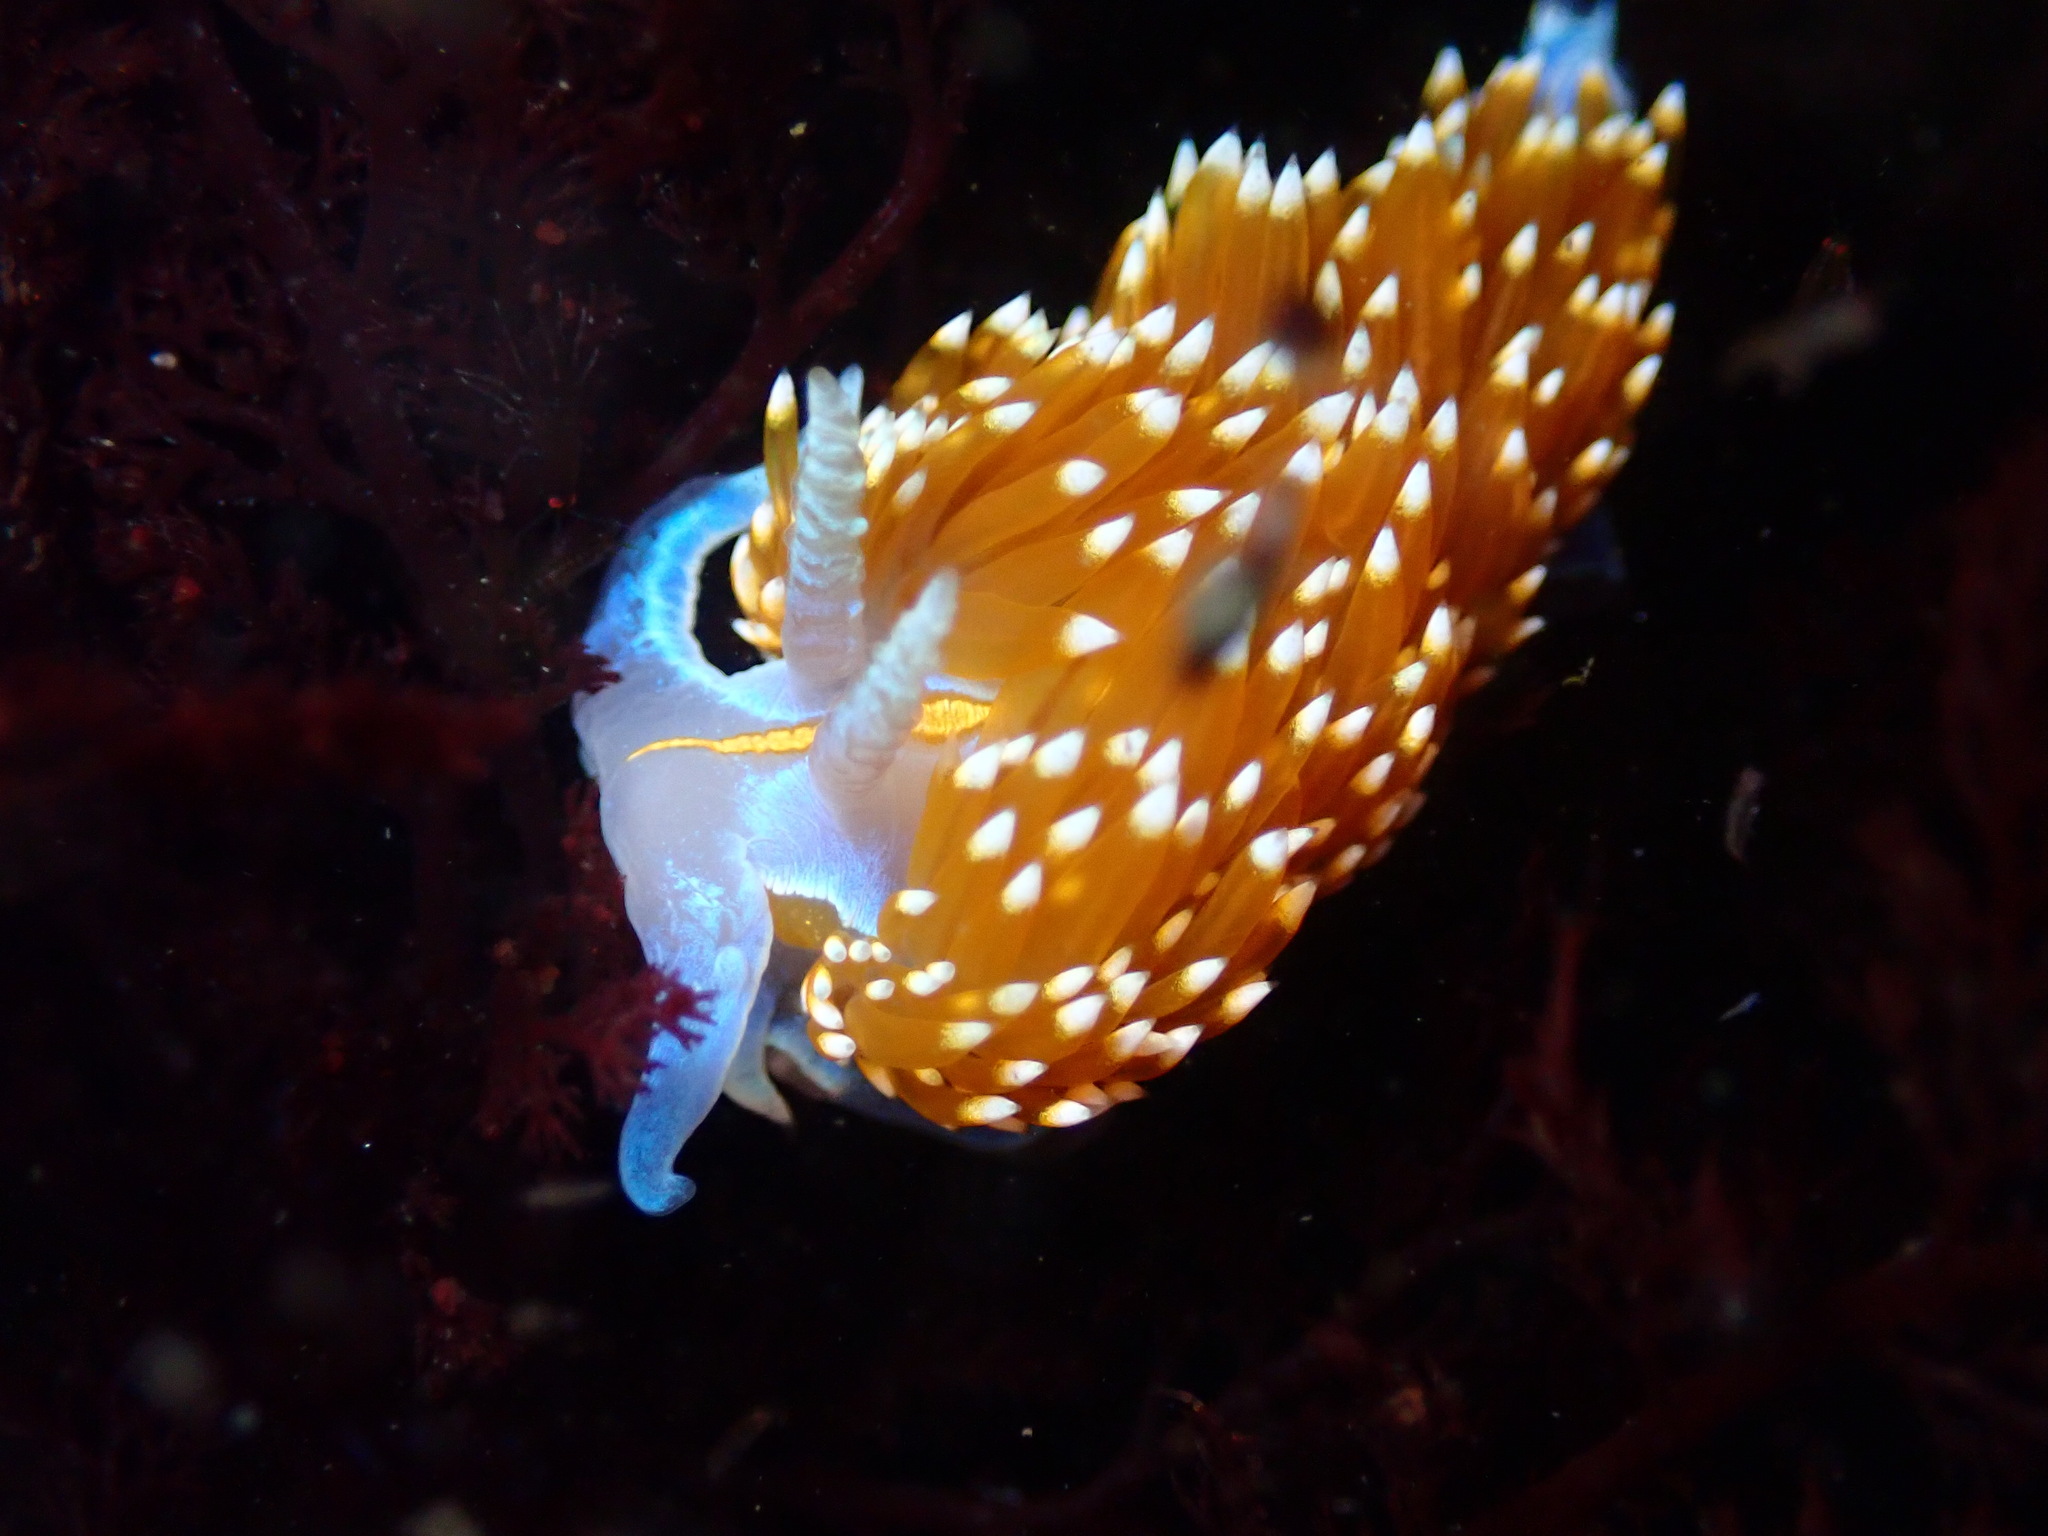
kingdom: Animalia
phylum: Mollusca
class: Gastropoda
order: Nudibranchia
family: Myrrhinidae
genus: Hermissenda
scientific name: Hermissenda opalescens
